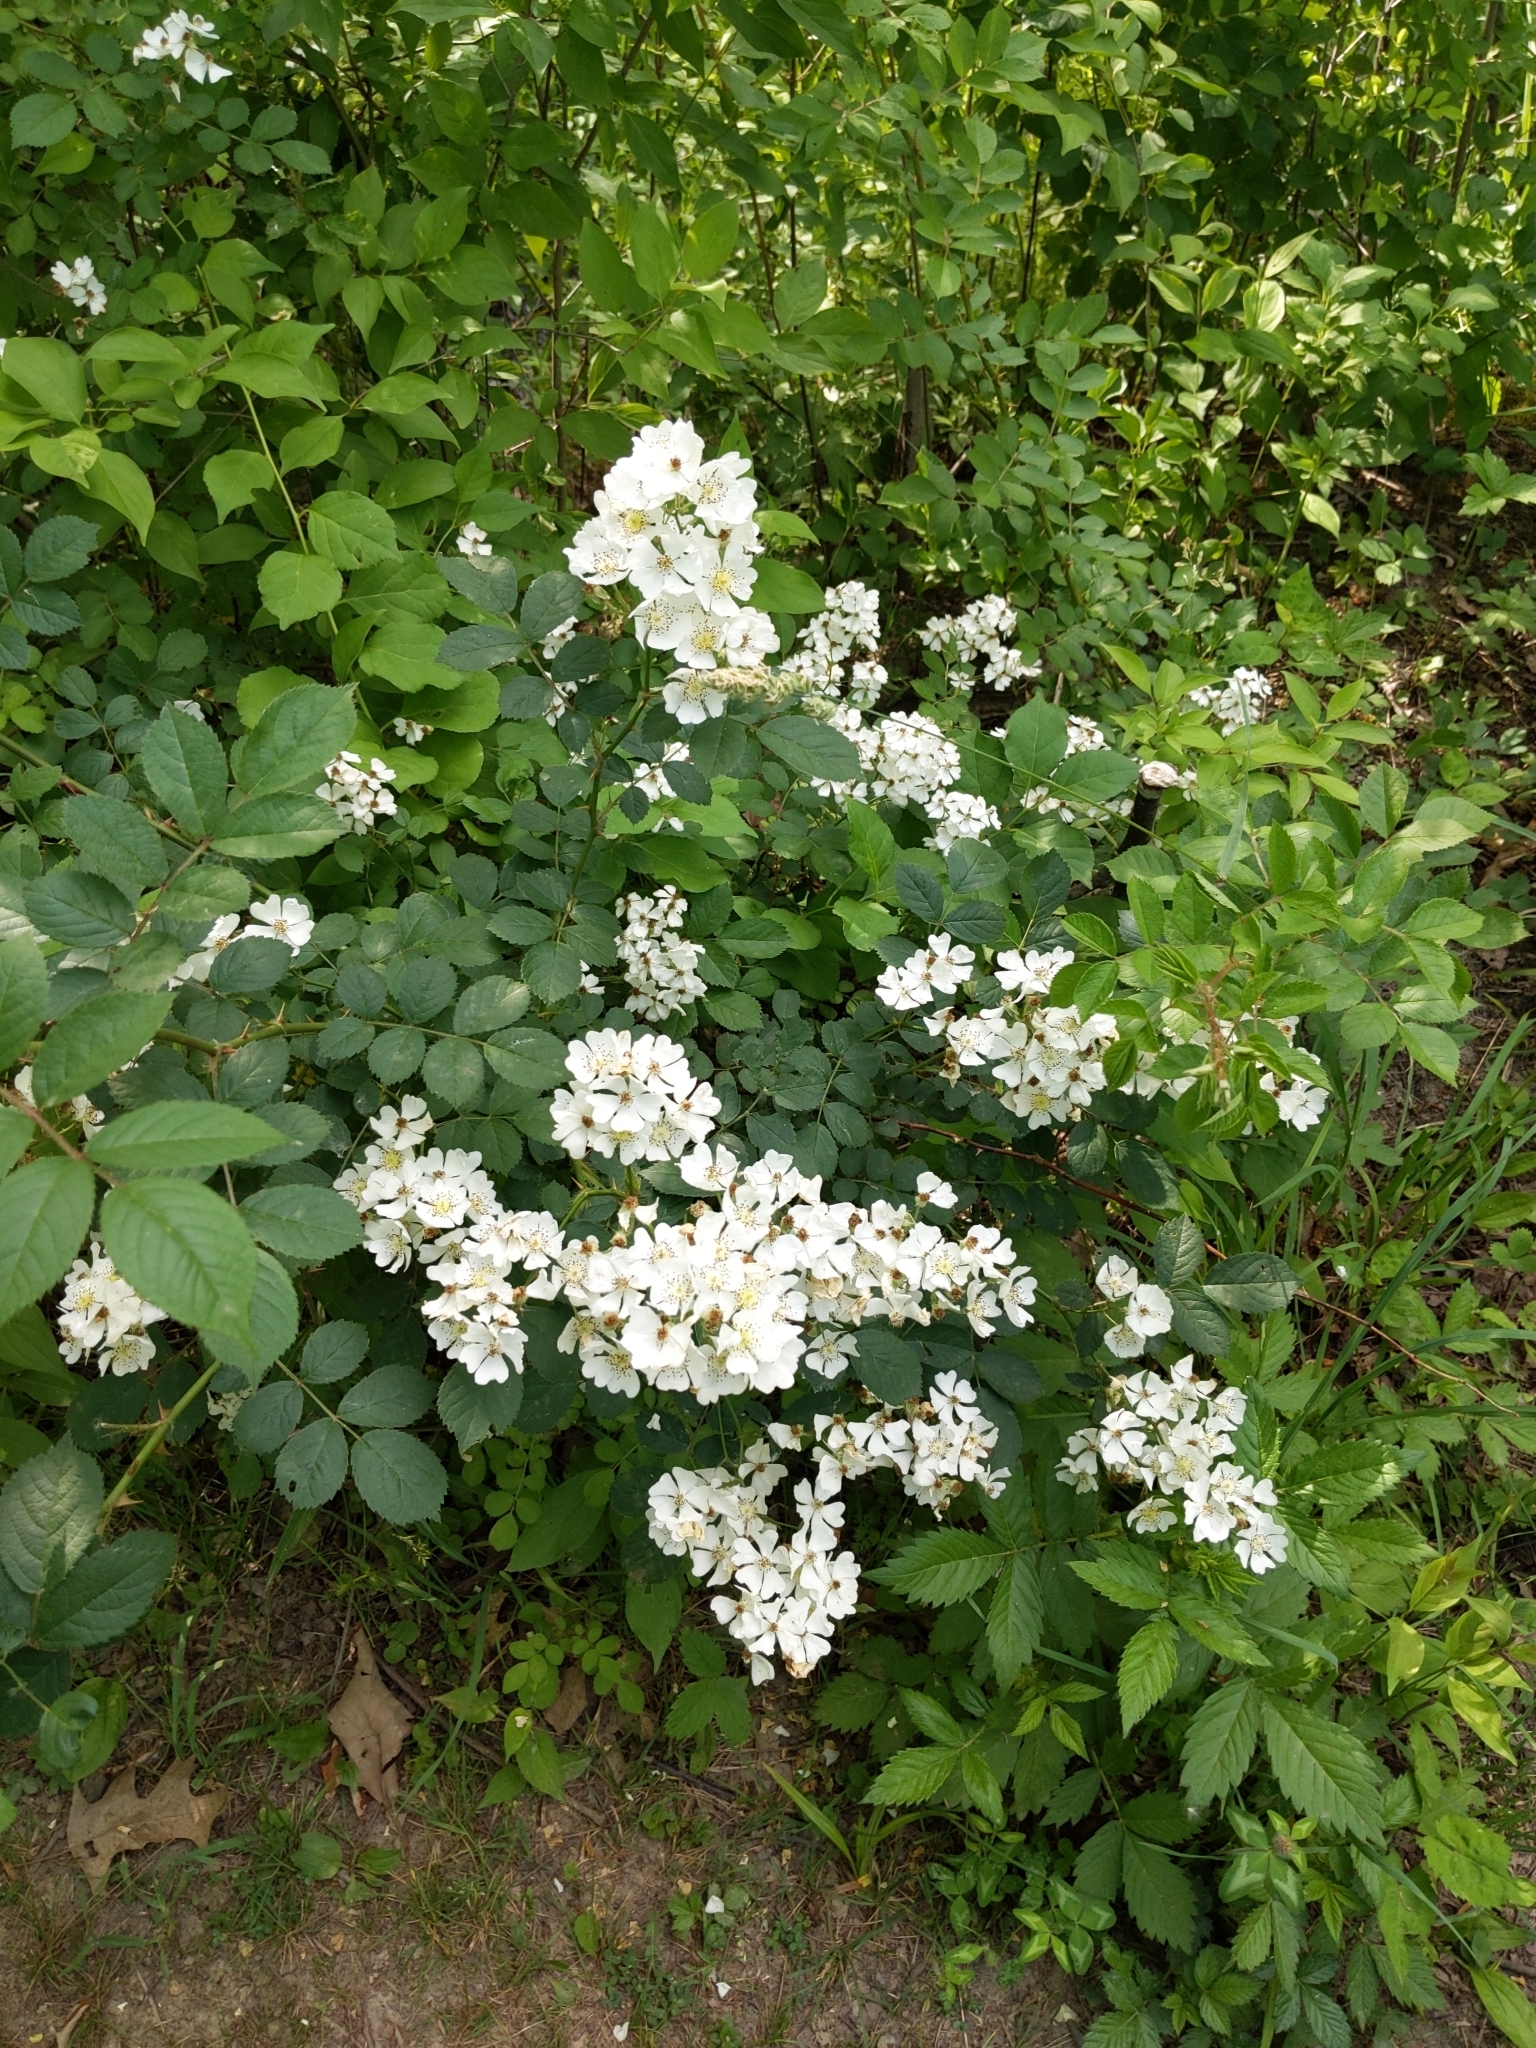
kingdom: Plantae
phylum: Tracheophyta
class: Magnoliopsida
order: Rosales
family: Rosaceae
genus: Rosa
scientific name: Rosa multiflora
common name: Multiflora rose
